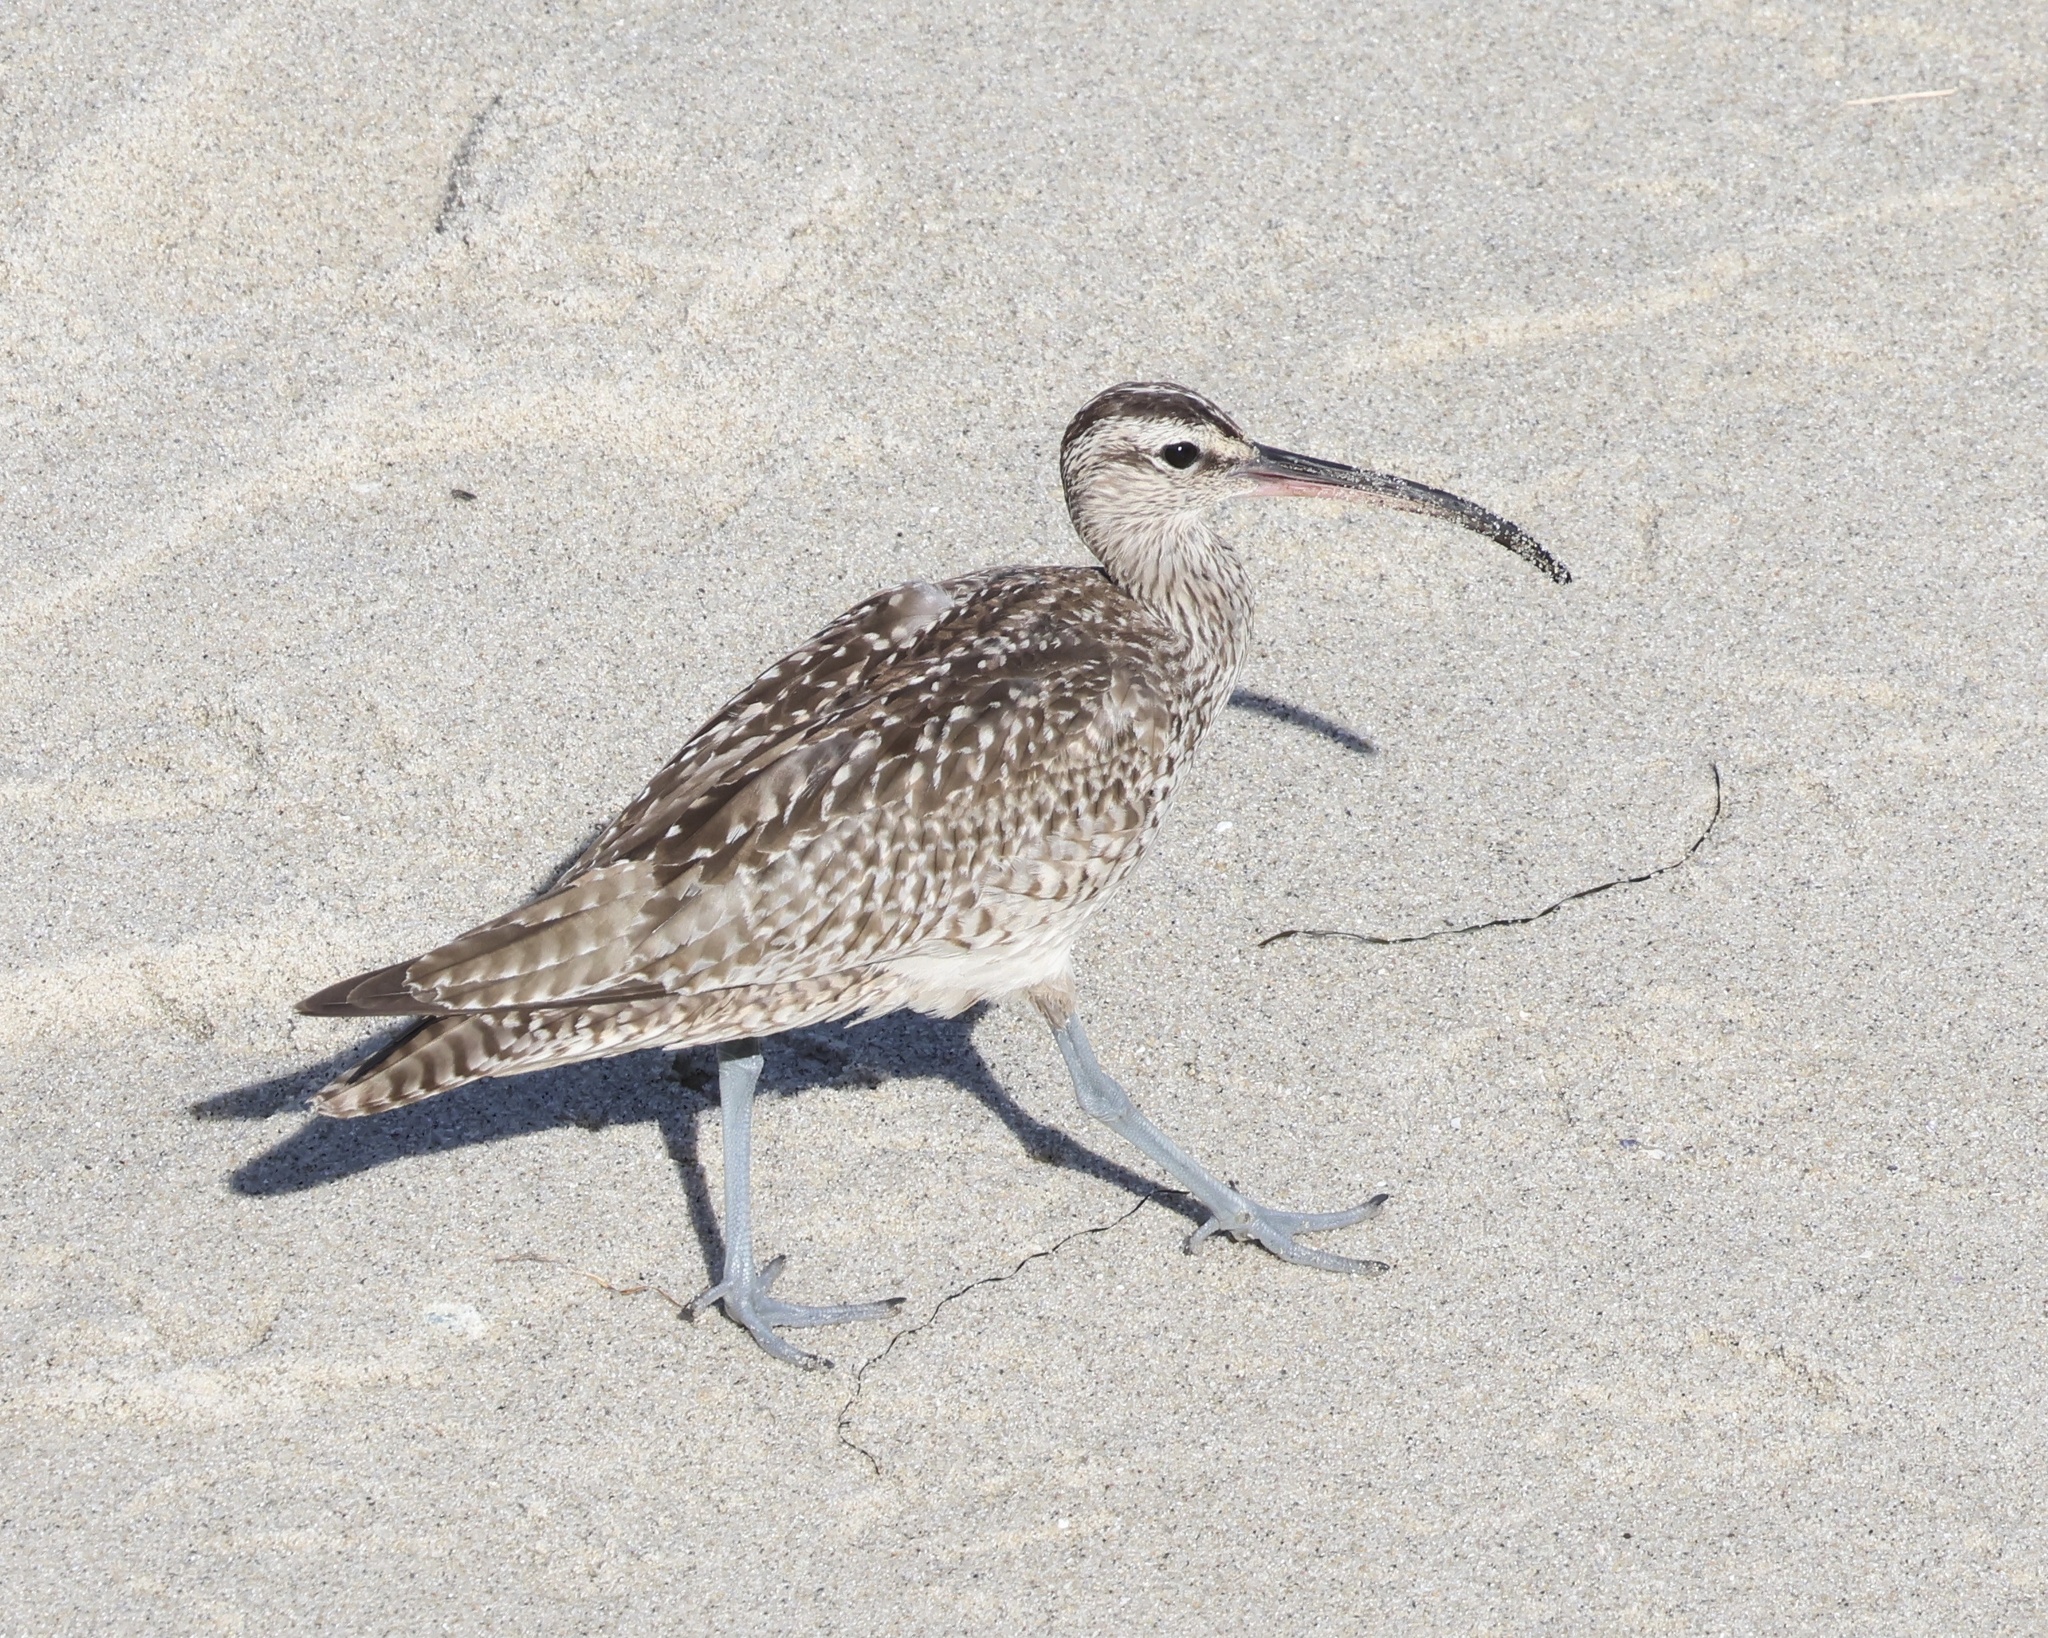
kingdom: Animalia
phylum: Chordata
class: Aves
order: Charadriiformes
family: Scolopacidae
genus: Numenius
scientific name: Numenius phaeopus
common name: Whimbrel
